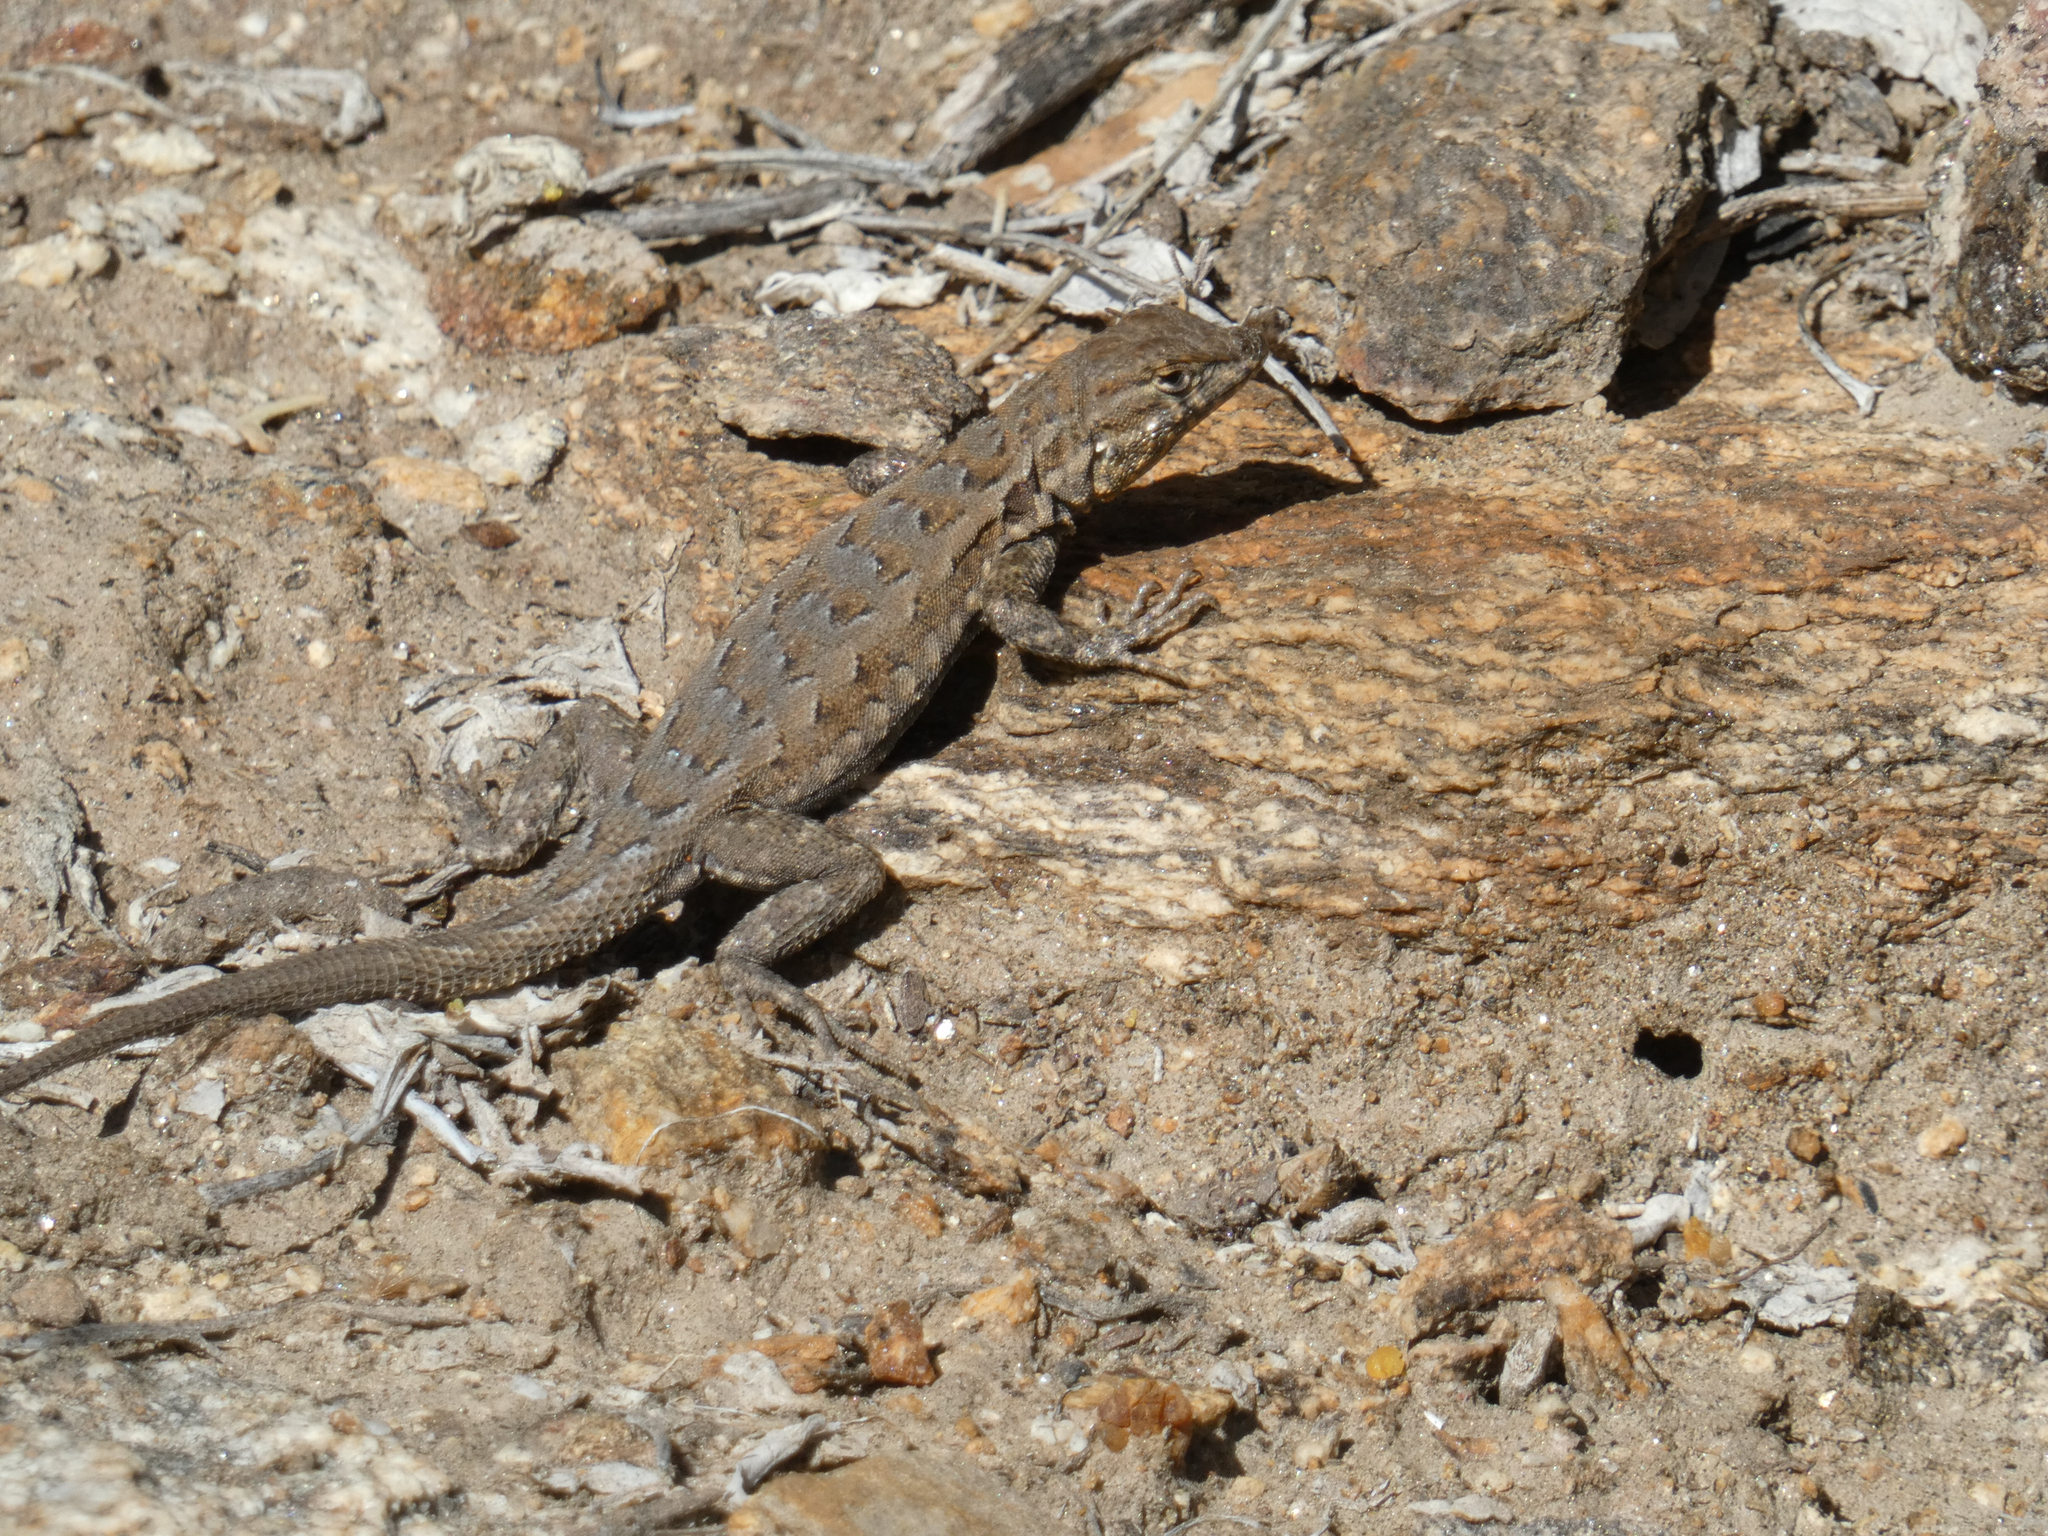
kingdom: Animalia
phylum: Chordata
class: Squamata
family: Phrynosomatidae
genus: Uta
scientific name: Uta stansburiana
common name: Side-blotched lizard
